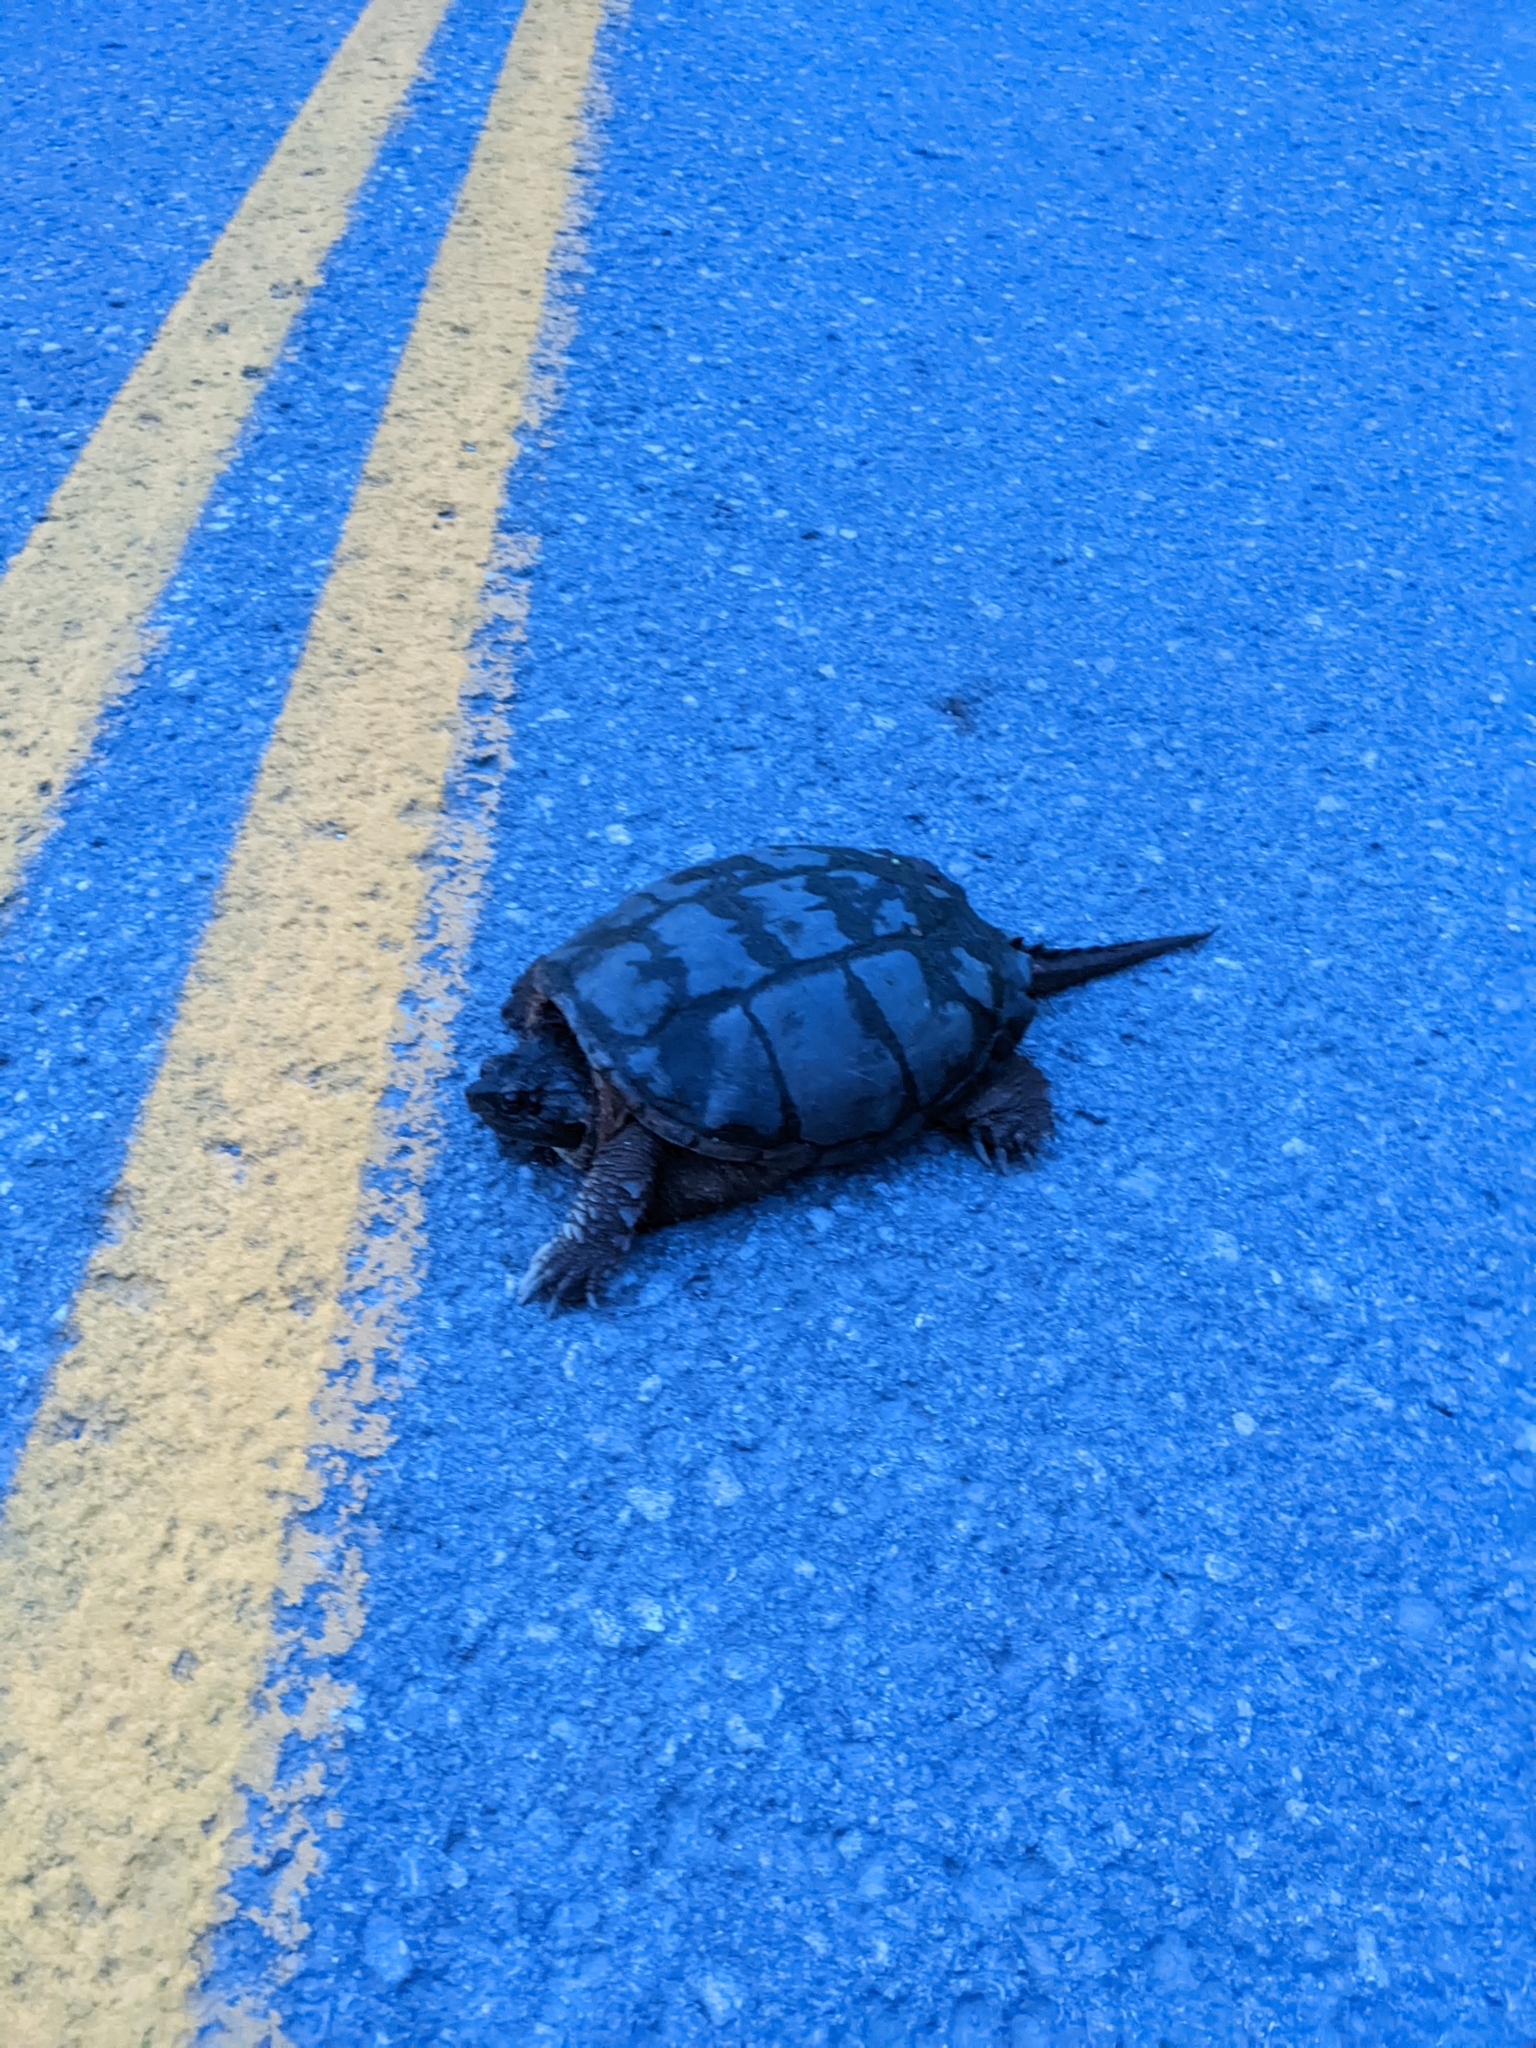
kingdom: Animalia
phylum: Chordata
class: Testudines
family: Chelydridae
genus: Chelydra
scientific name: Chelydra serpentina
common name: Common snapping turtle
